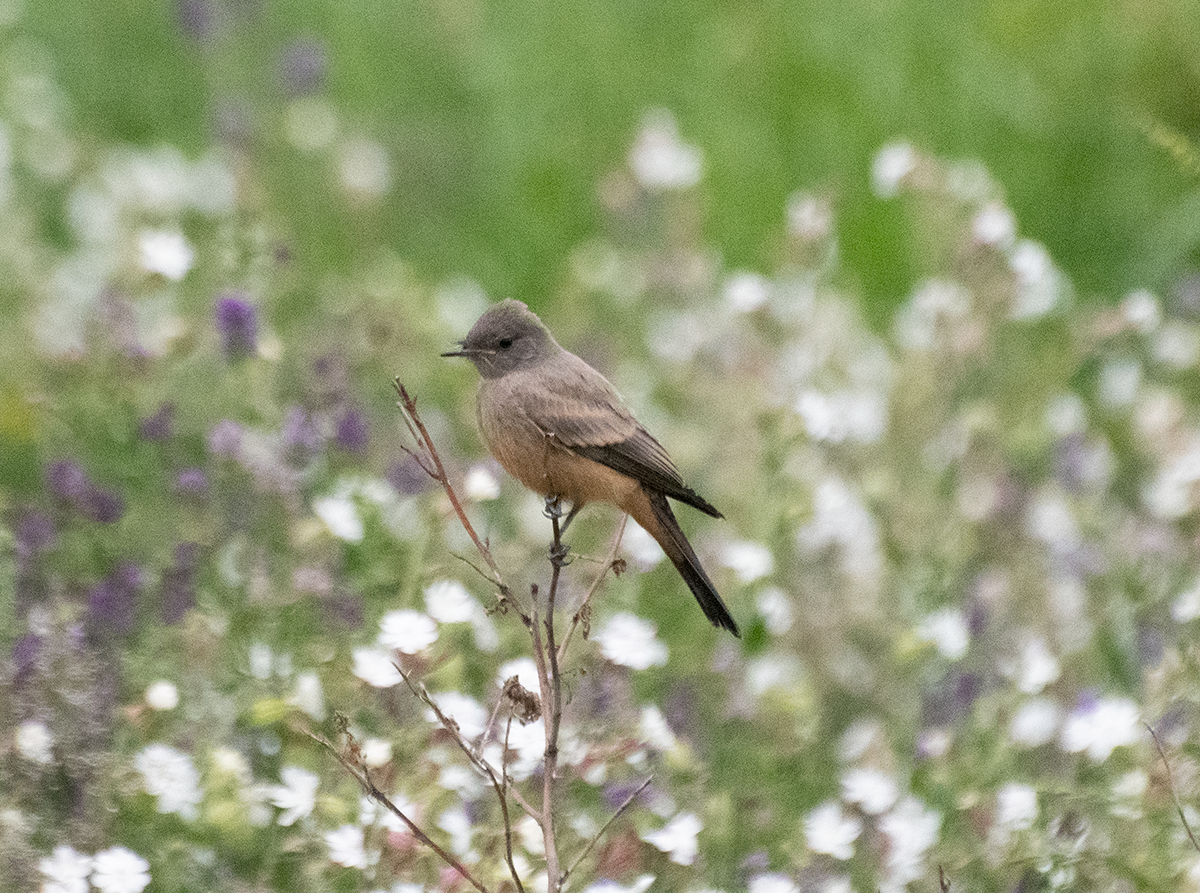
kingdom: Animalia
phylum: Chordata
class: Aves
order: Passeriformes
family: Tyrannidae
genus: Sayornis
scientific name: Sayornis saya
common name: Say's phoebe
